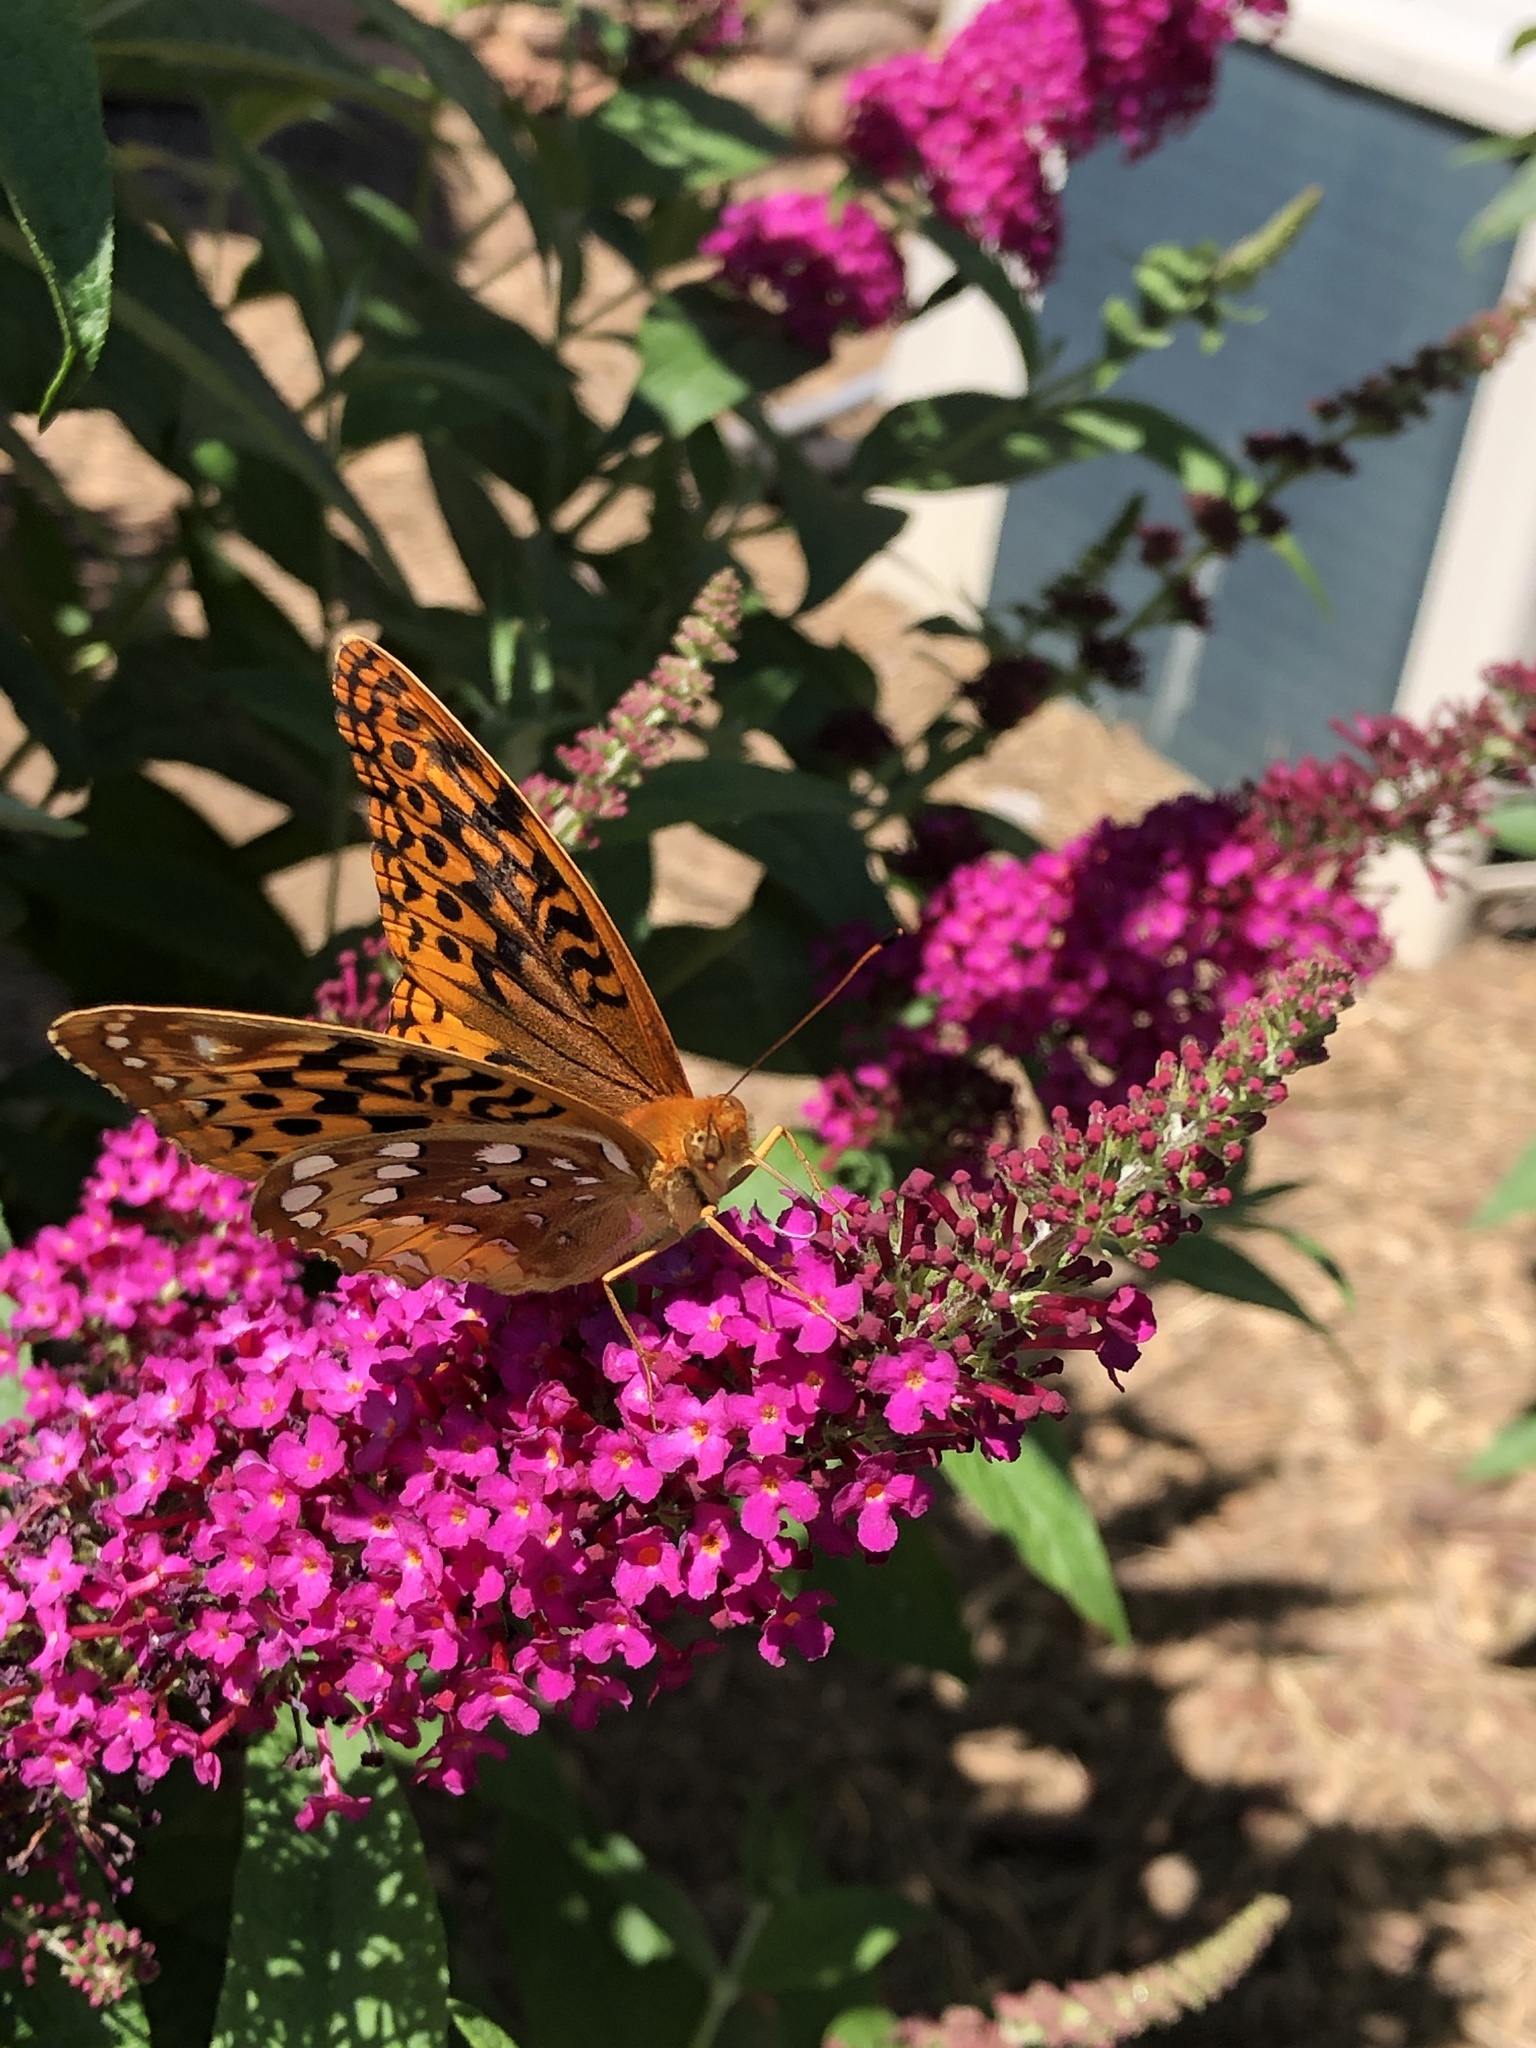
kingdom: Animalia
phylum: Arthropoda
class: Insecta
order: Lepidoptera
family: Nymphalidae
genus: Speyeria
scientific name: Speyeria cybele
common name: Great spangled fritillary
